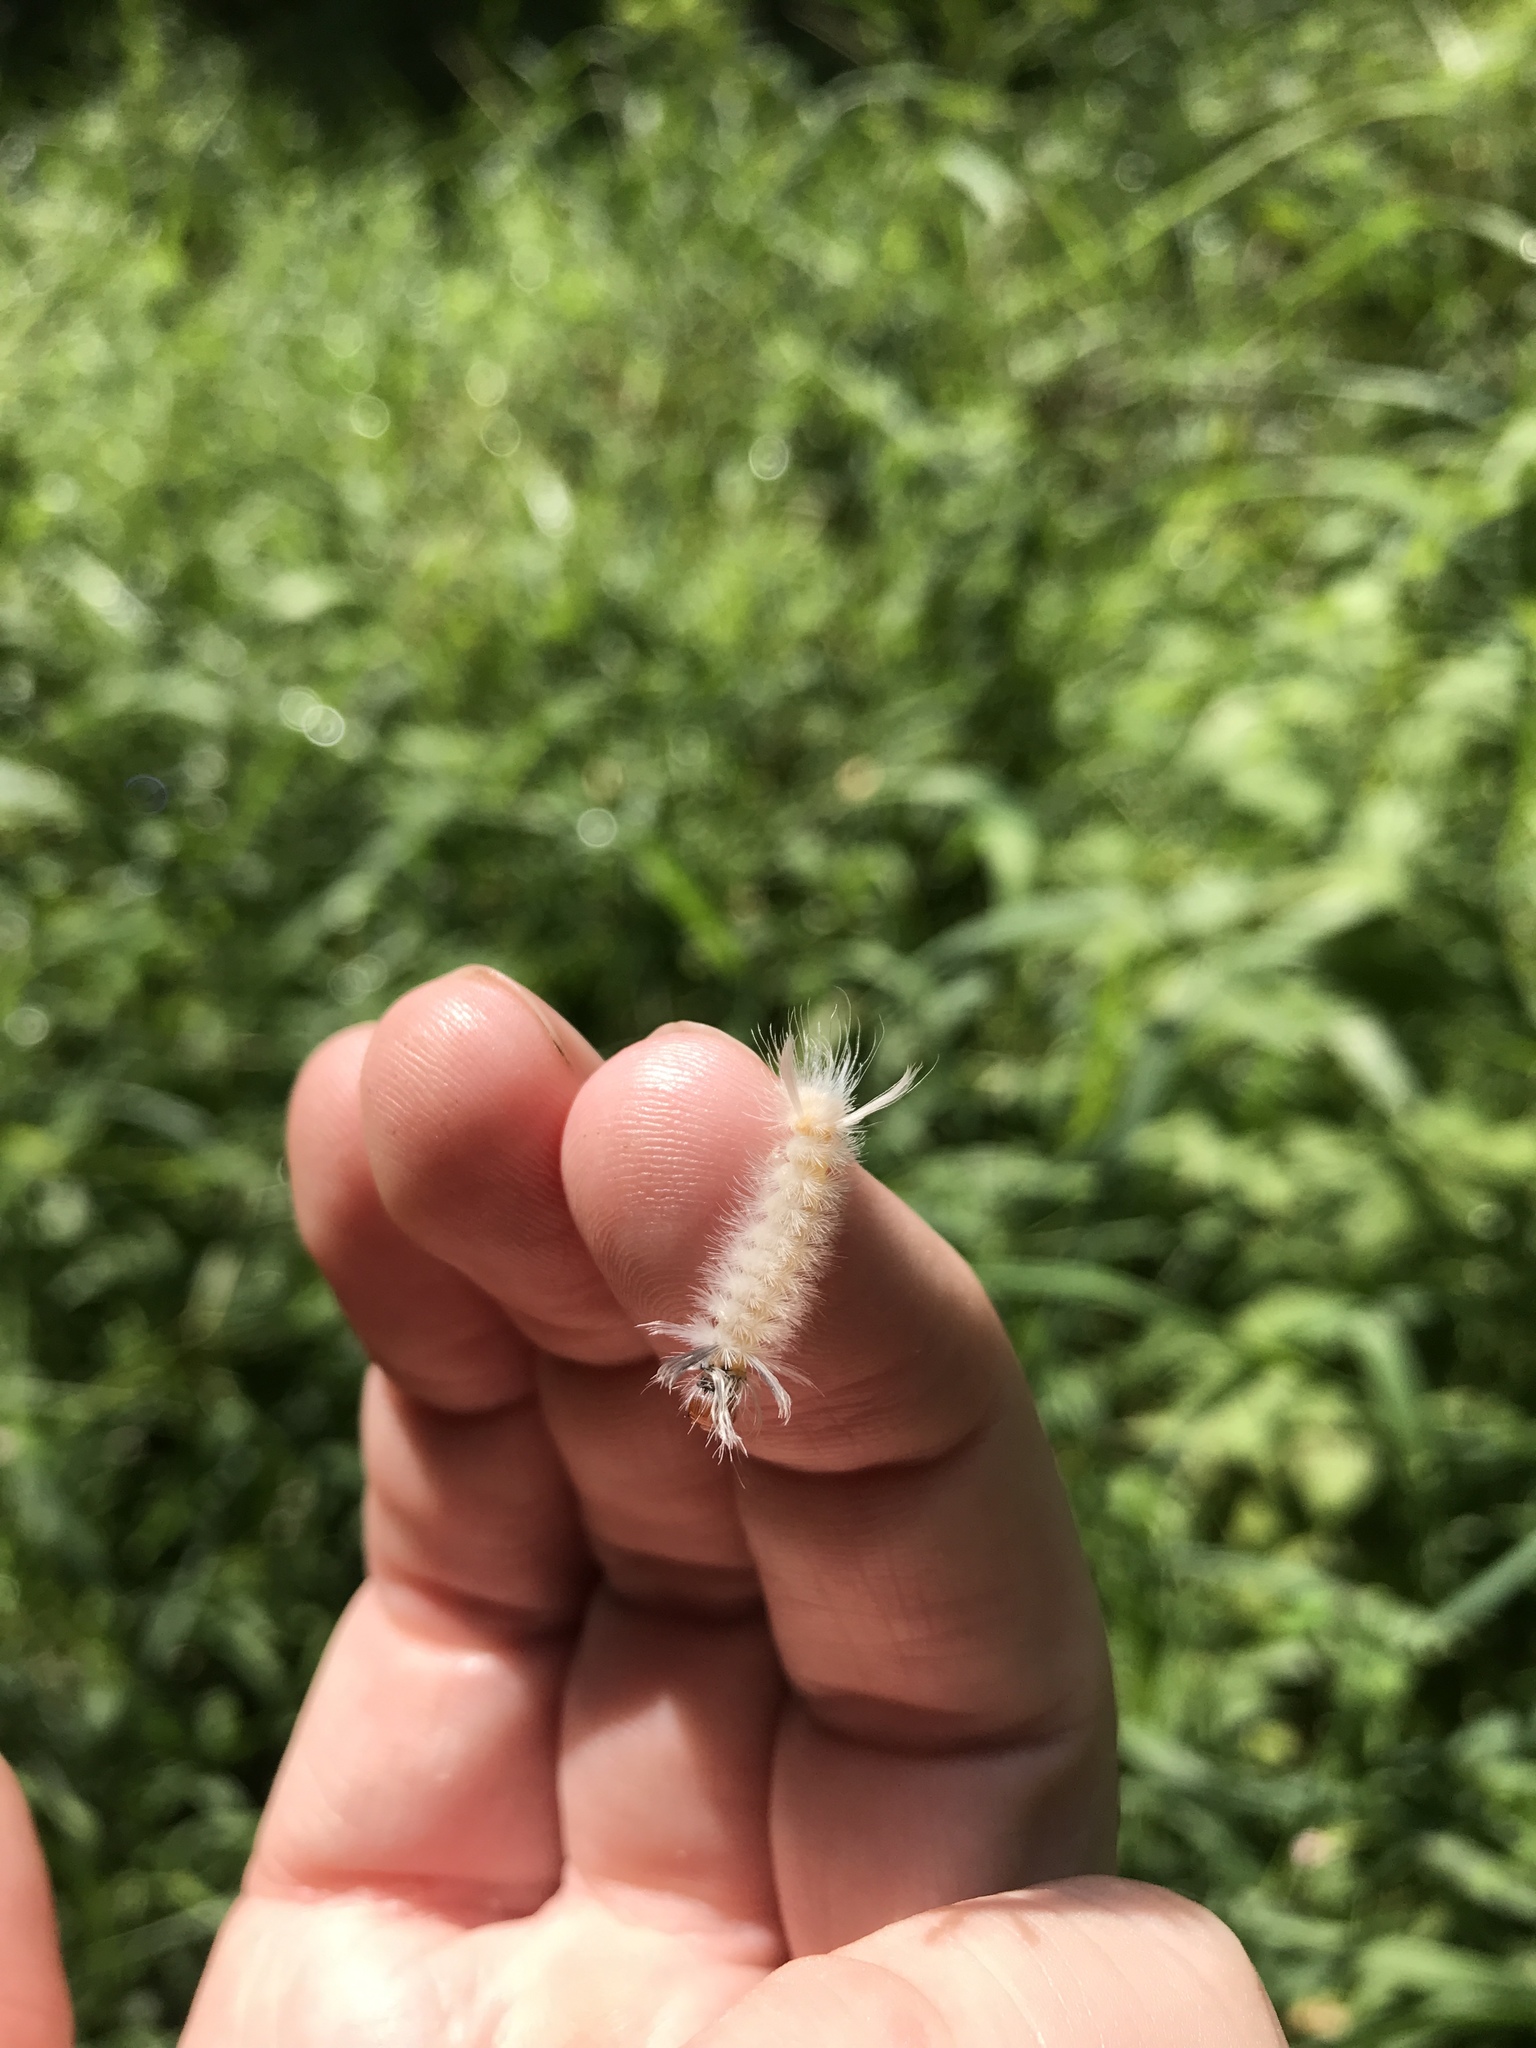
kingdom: Animalia
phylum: Arthropoda
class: Insecta
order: Lepidoptera
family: Erebidae
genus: Halysidota
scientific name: Halysidota tessellaris
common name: Banded tussock moth
